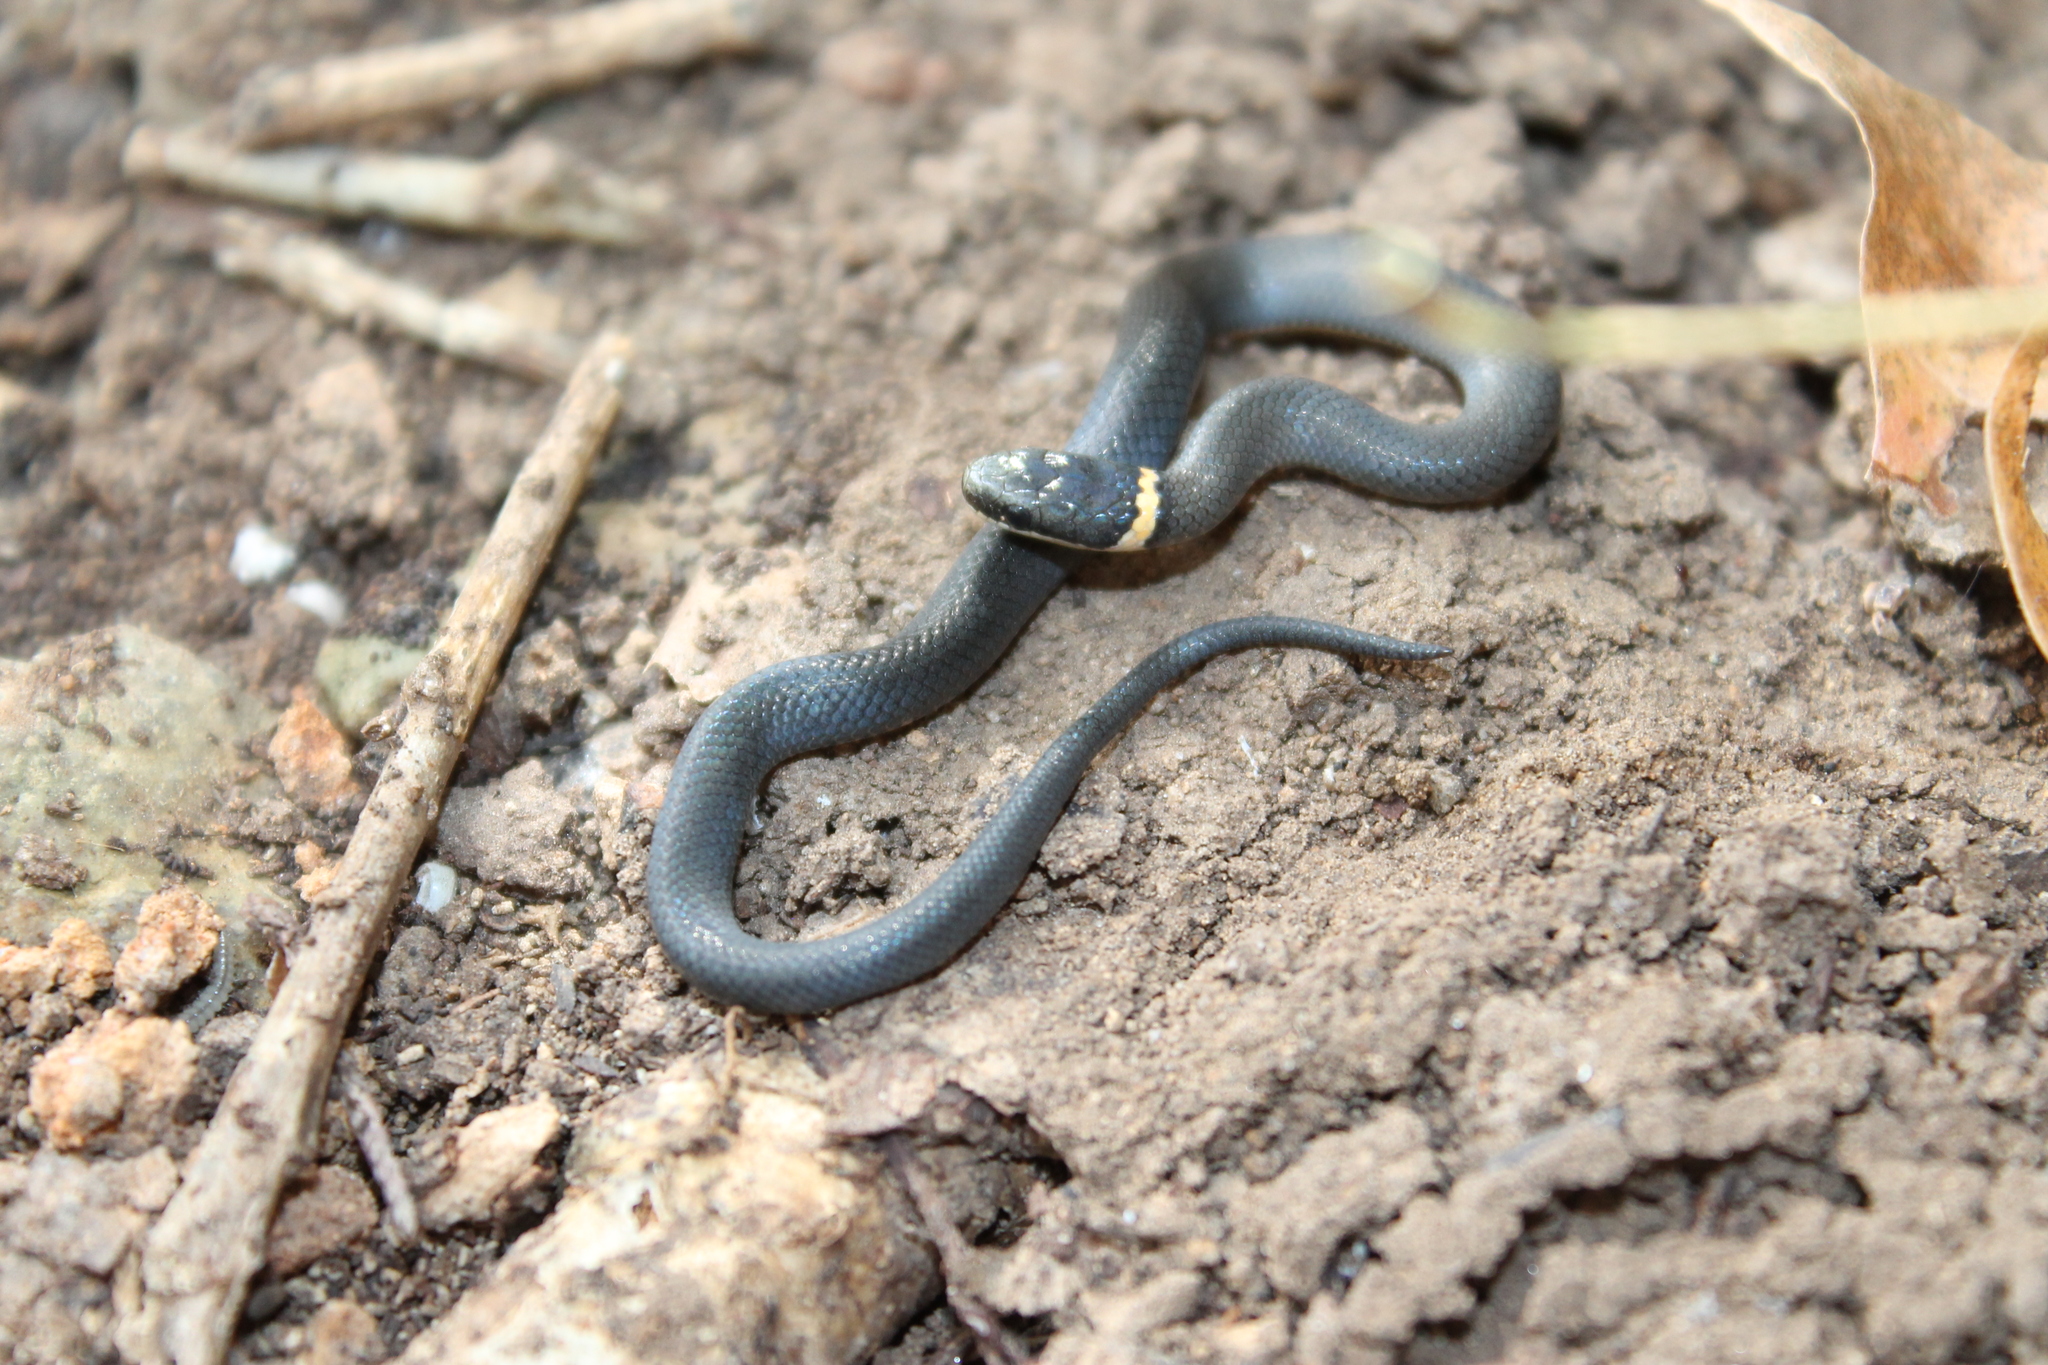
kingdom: Animalia
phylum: Chordata
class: Squamata
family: Colubridae
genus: Diadophis
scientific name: Diadophis punctatus
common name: Ringneck snake
